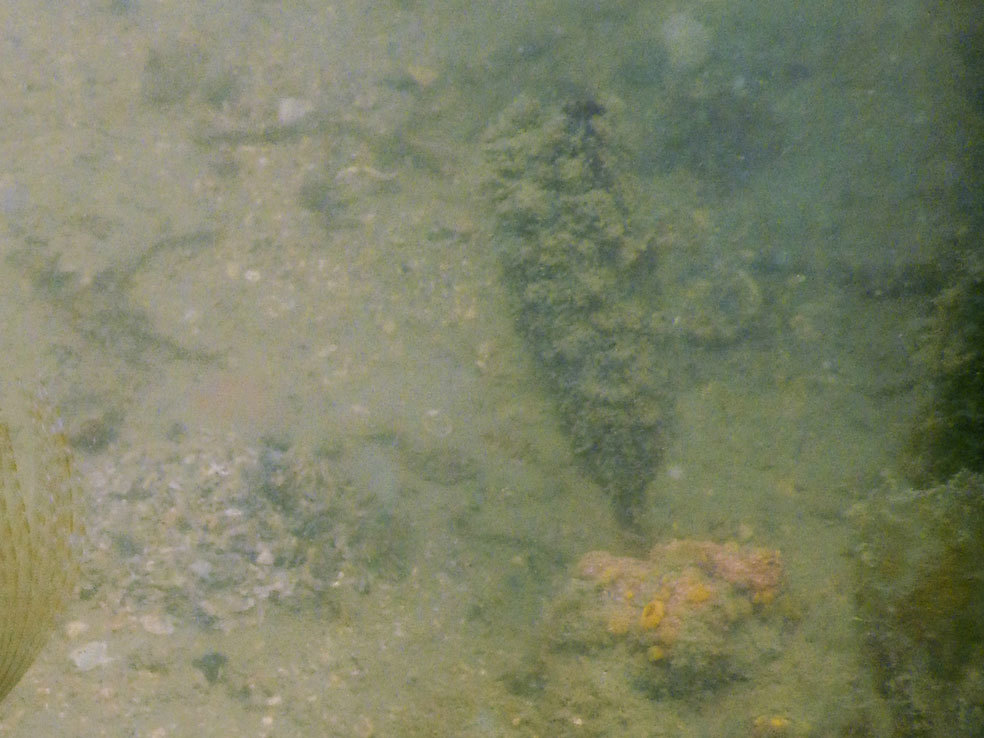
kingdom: Animalia
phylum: Chordata
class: Ascidiacea
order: Stolidobranchia
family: Styelidae
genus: Styela
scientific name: Styela clava
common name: Leathery sea squirt
